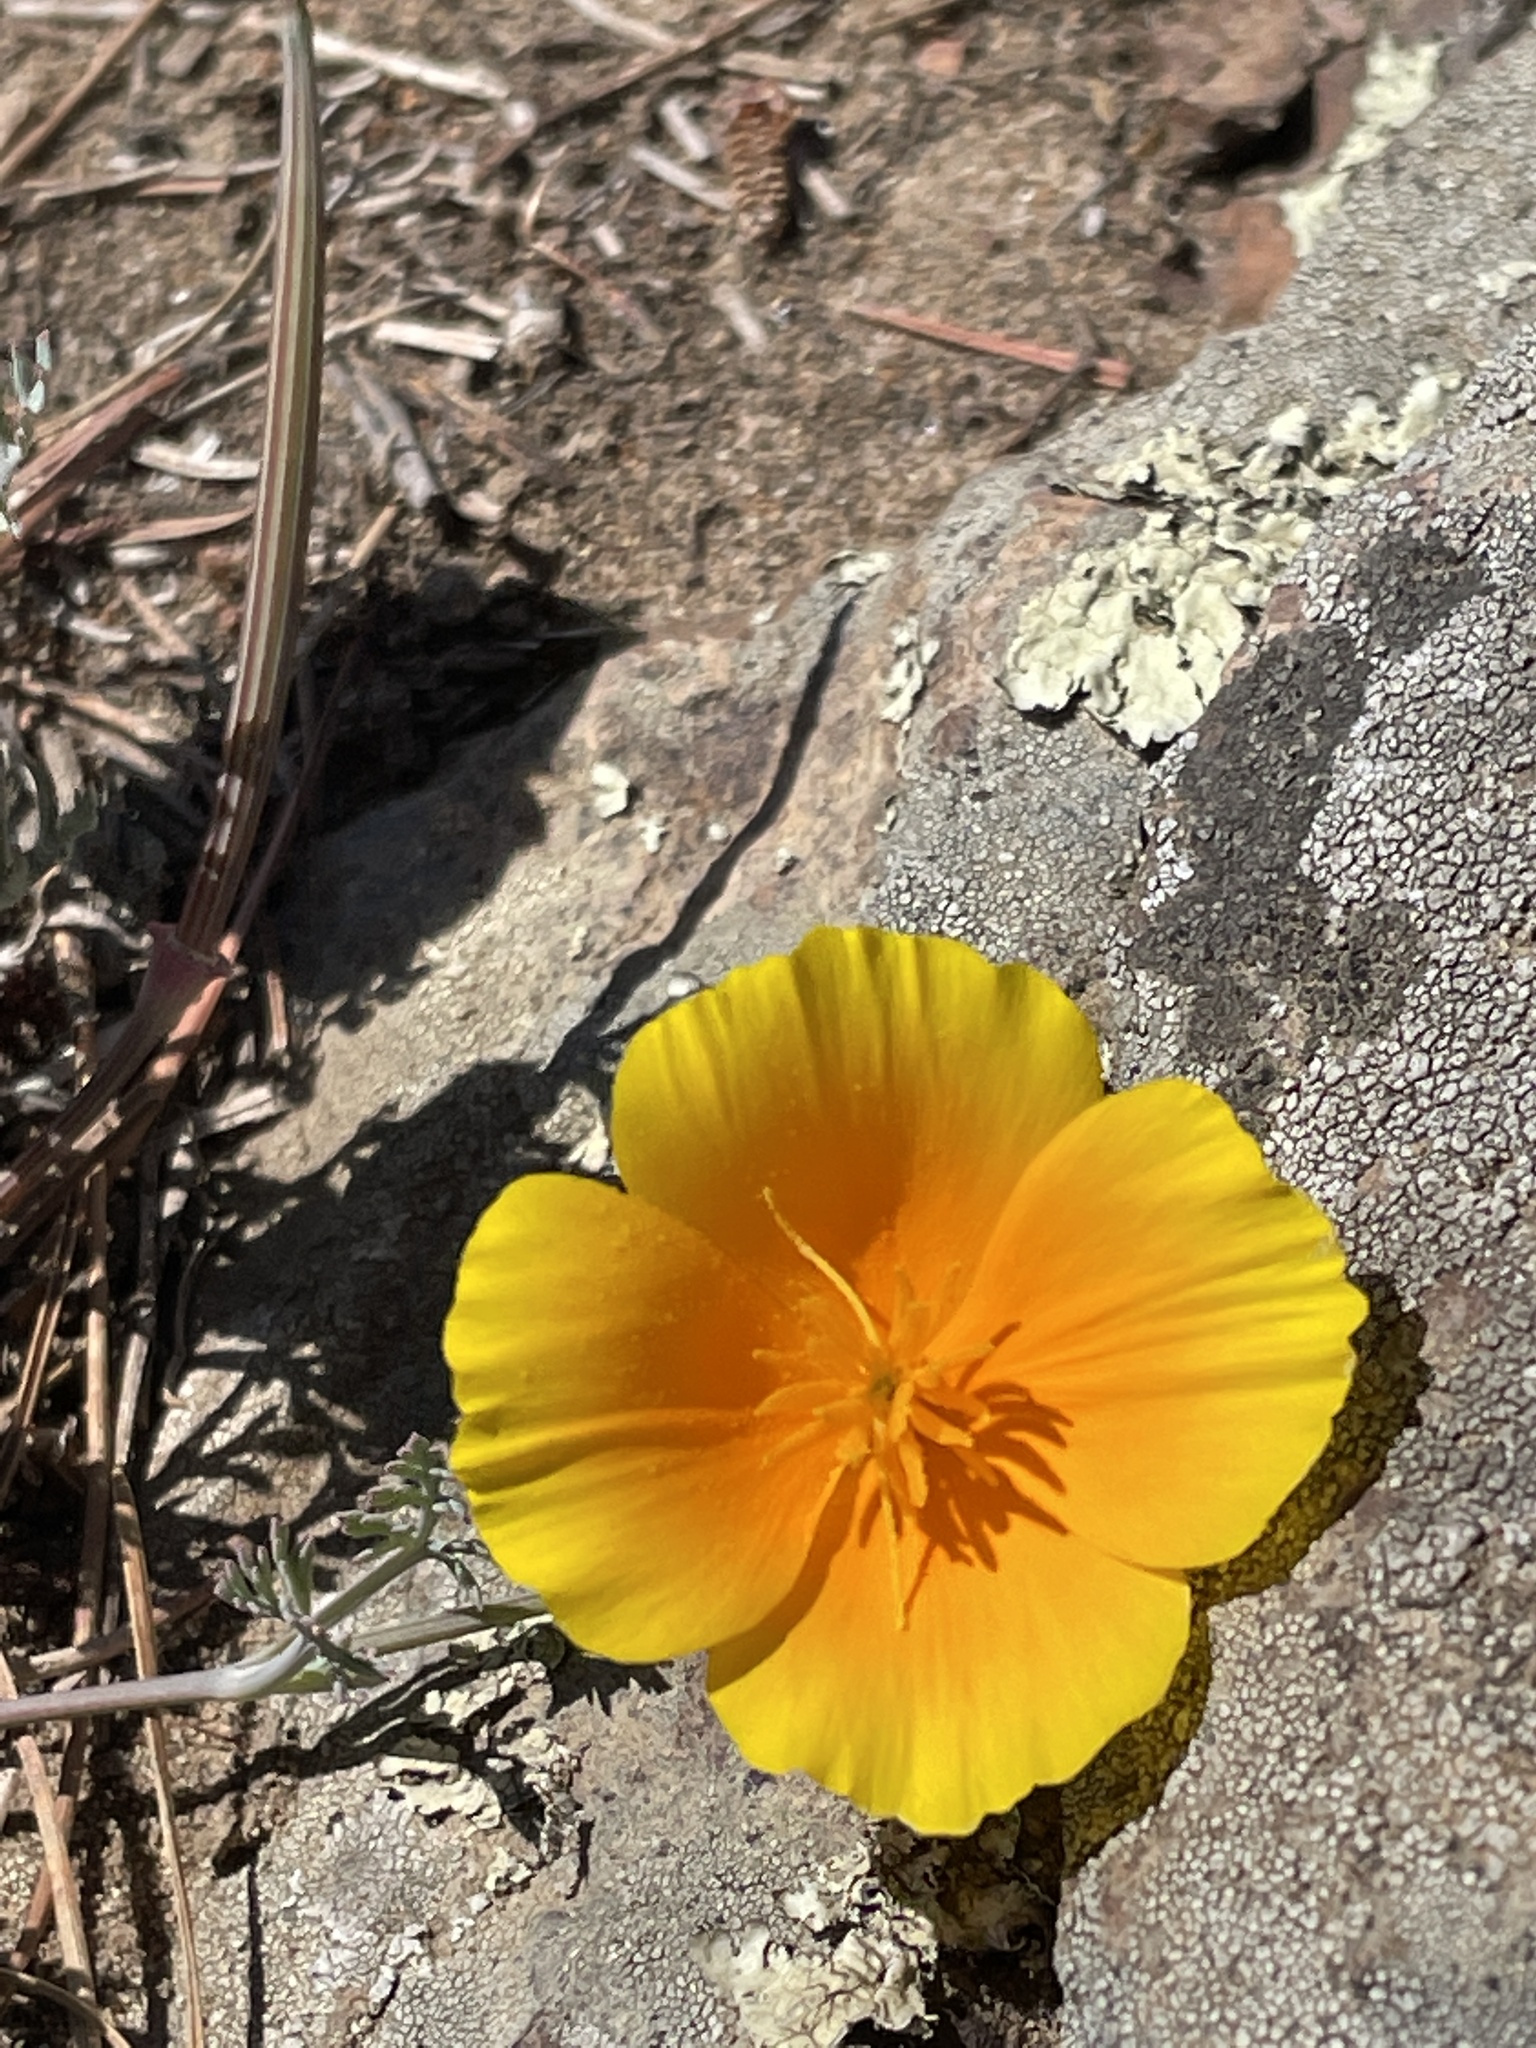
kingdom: Plantae
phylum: Tracheophyta
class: Magnoliopsida
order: Ranunculales
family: Papaveraceae
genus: Eschscholzia
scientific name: Eschscholzia californica
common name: California poppy
